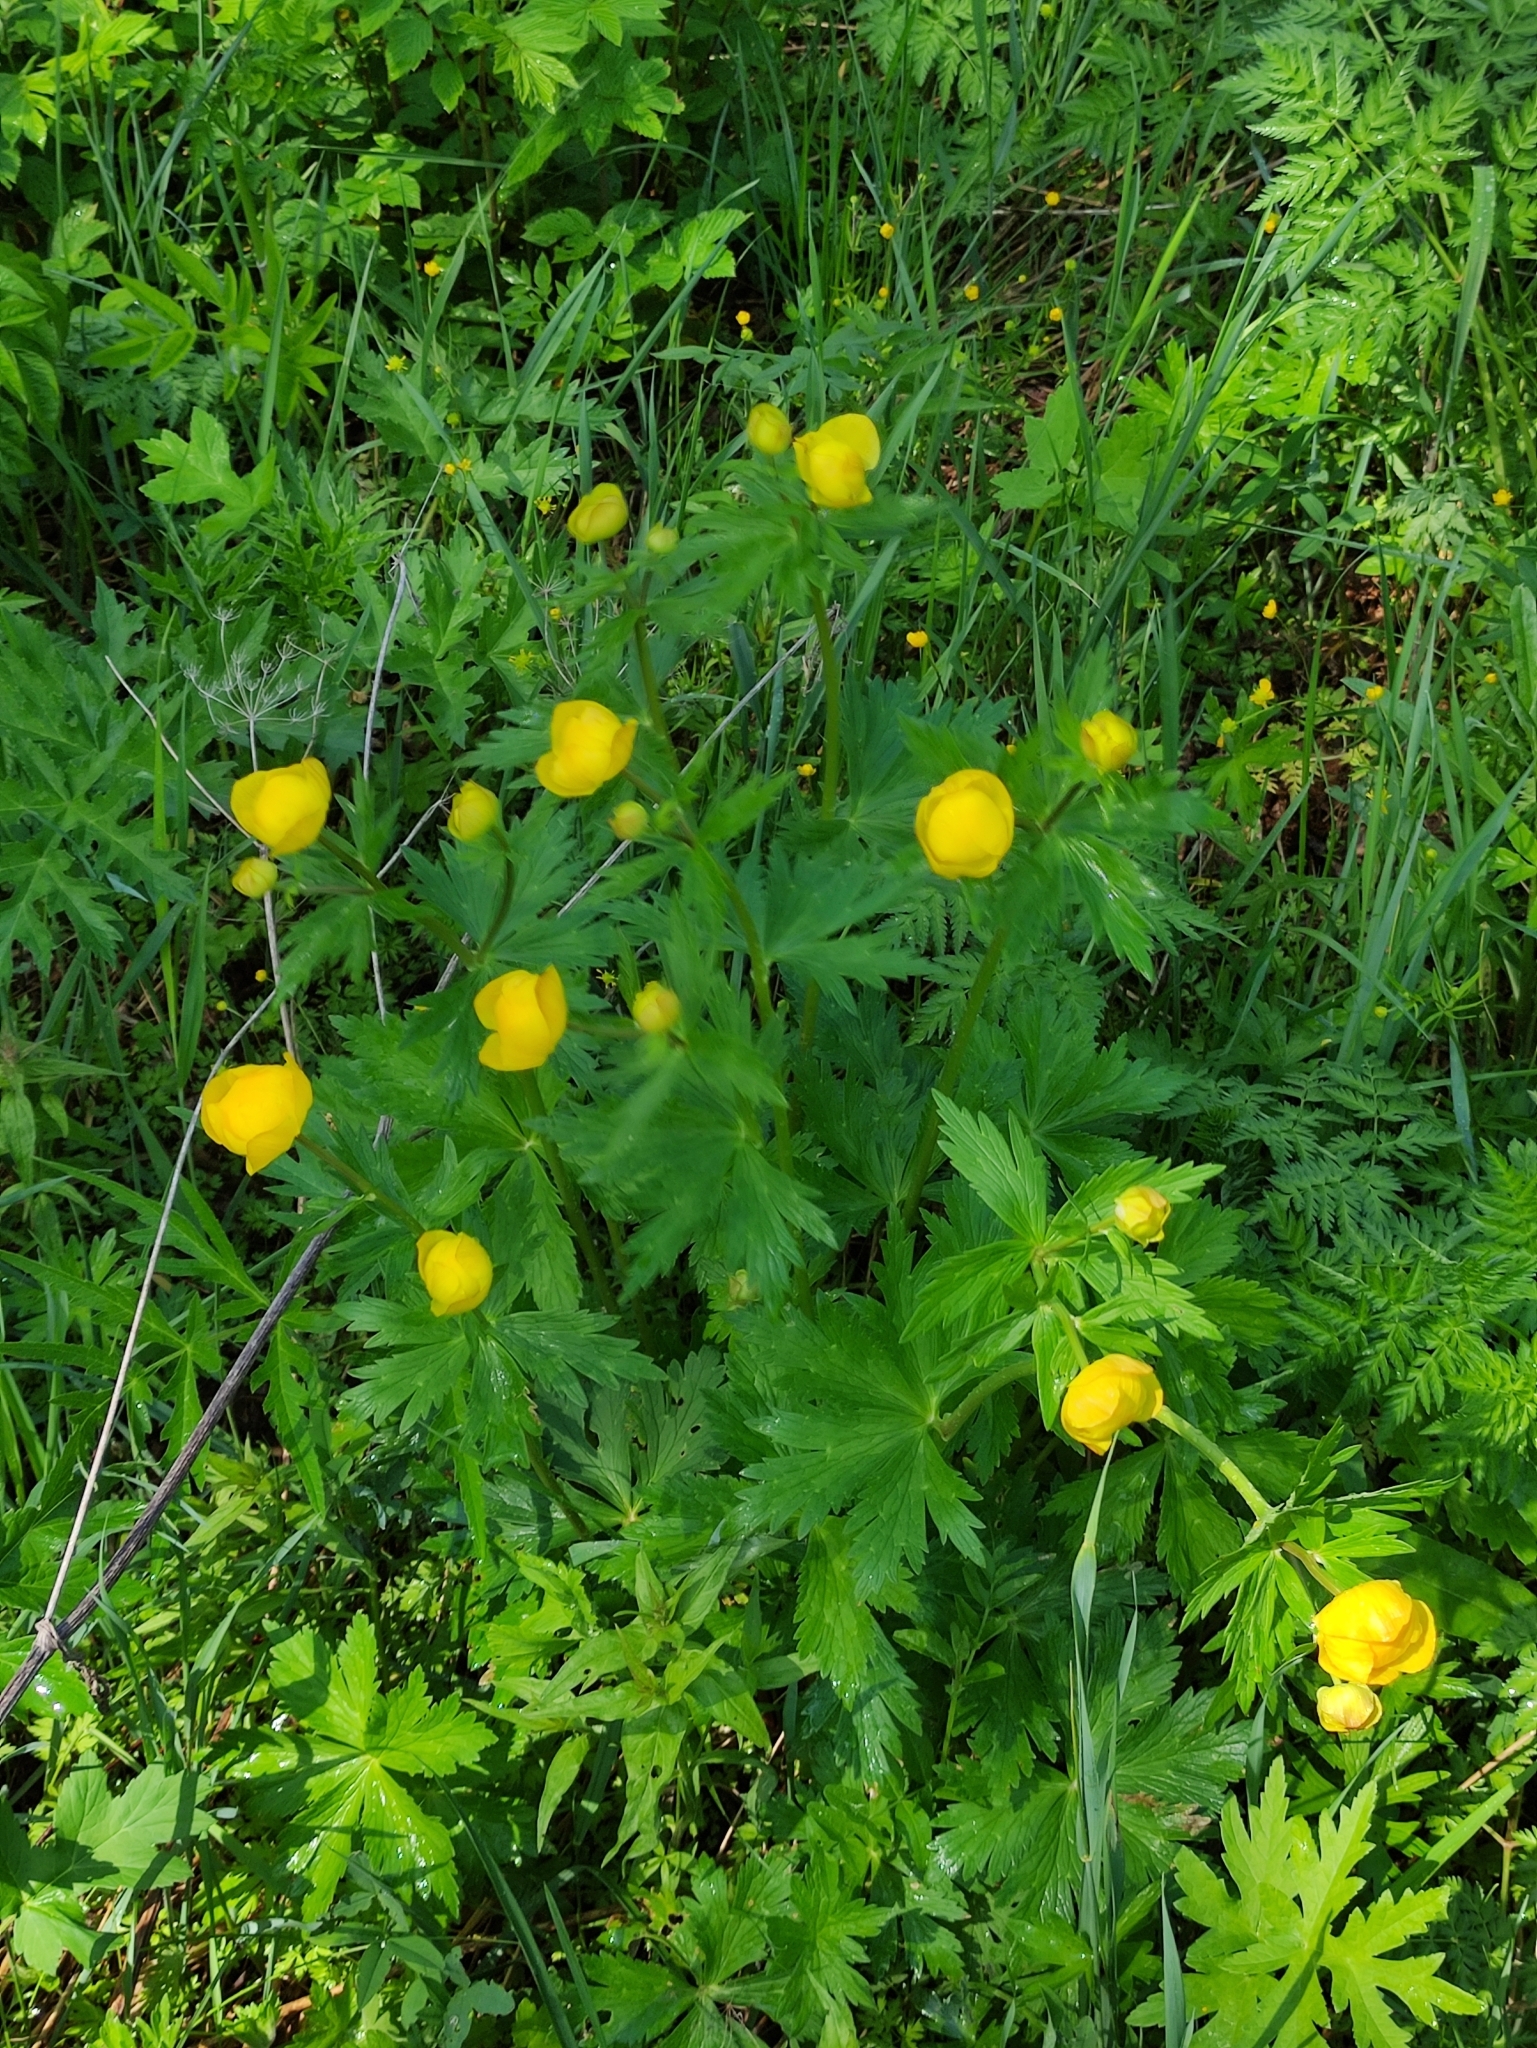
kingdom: Plantae
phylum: Tracheophyta
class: Magnoliopsida
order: Ranunculales
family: Ranunculaceae
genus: Trollius
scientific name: Trollius europaeus
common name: European globeflower
